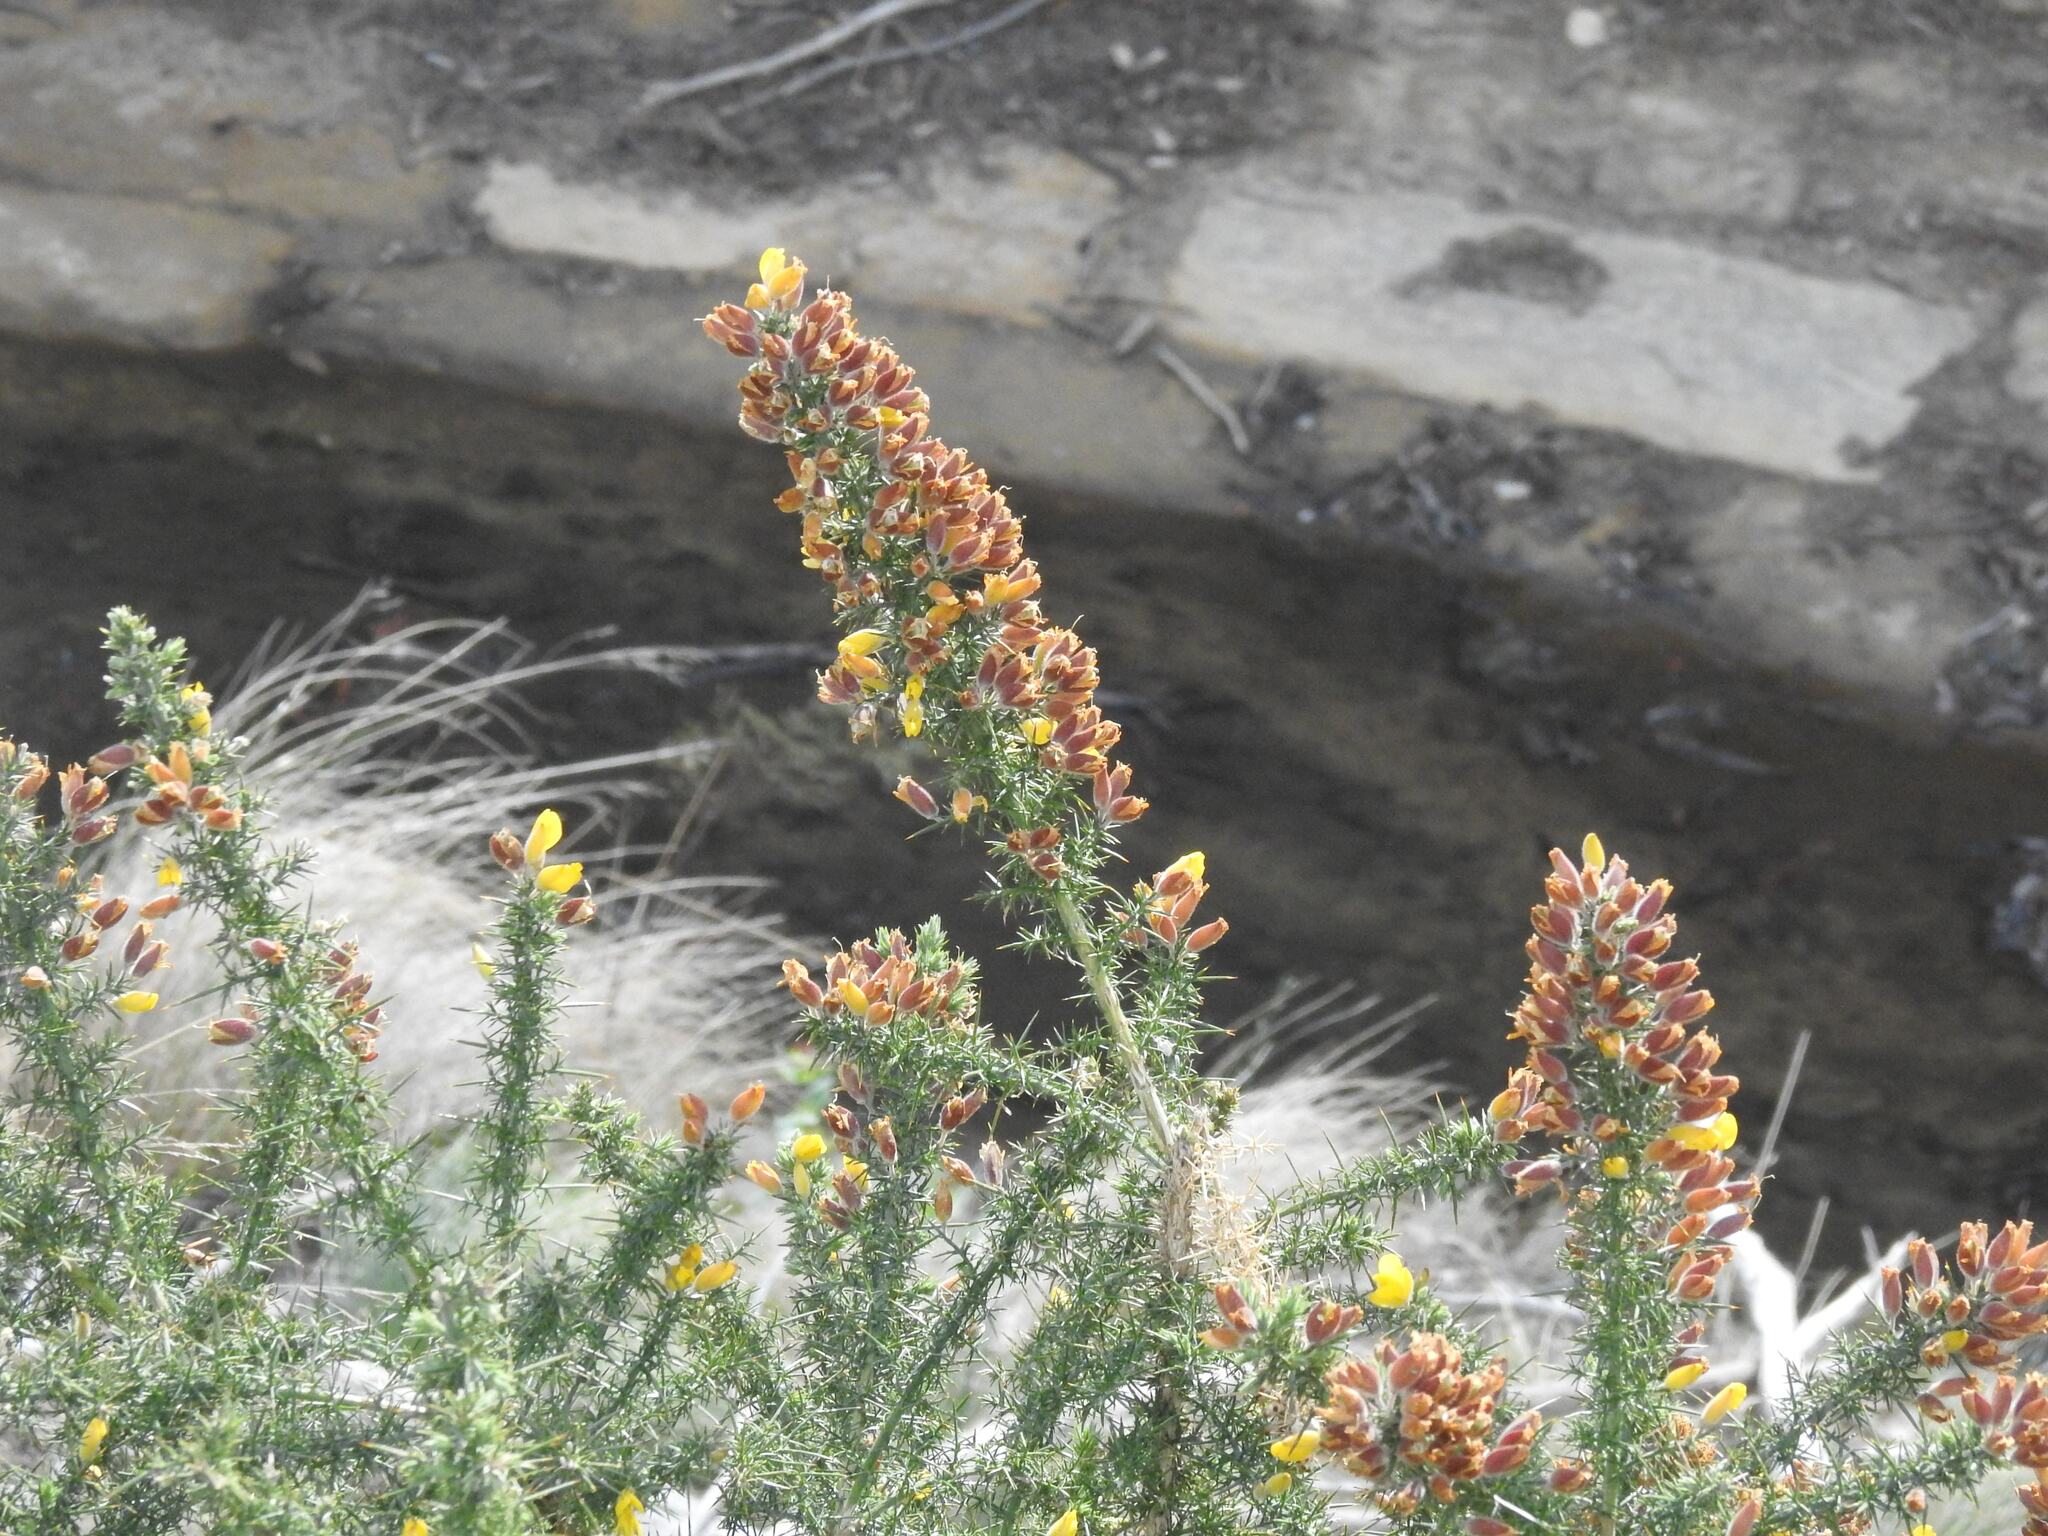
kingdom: Plantae
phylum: Tracheophyta
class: Magnoliopsida
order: Fabales
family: Fabaceae
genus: Ulex
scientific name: Ulex europaeus
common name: Common gorse
